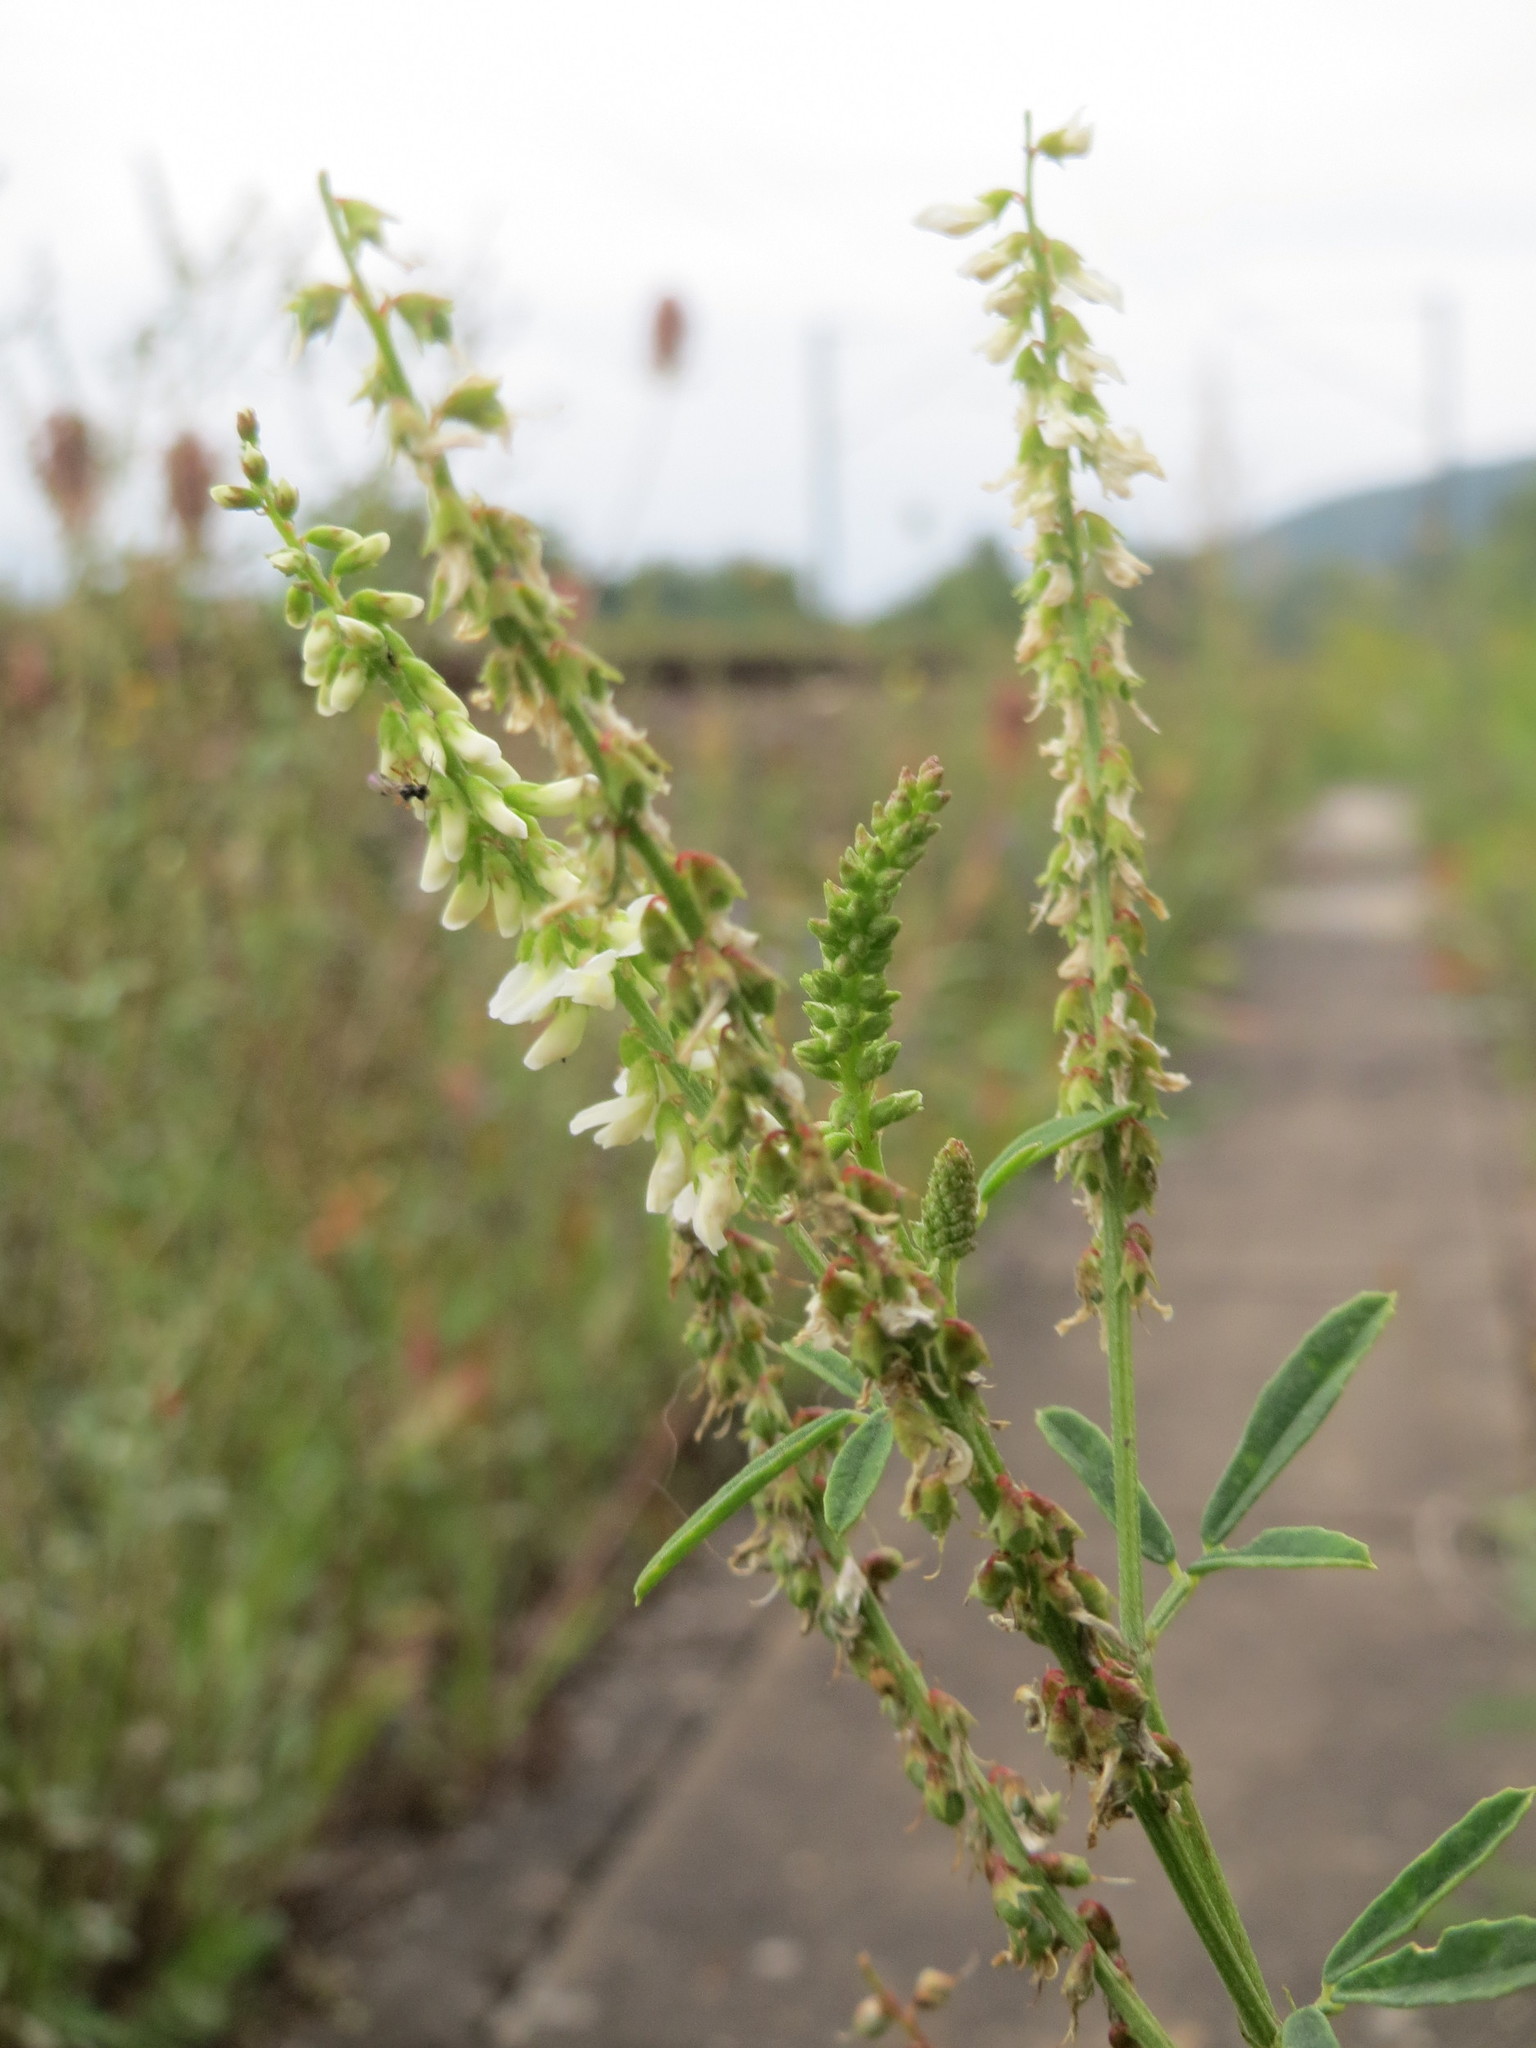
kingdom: Plantae
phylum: Tracheophyta
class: Magnoliopsida
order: Fabales
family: Fabaceae
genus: Melilotus
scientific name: Melilotus albus
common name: White melilot
